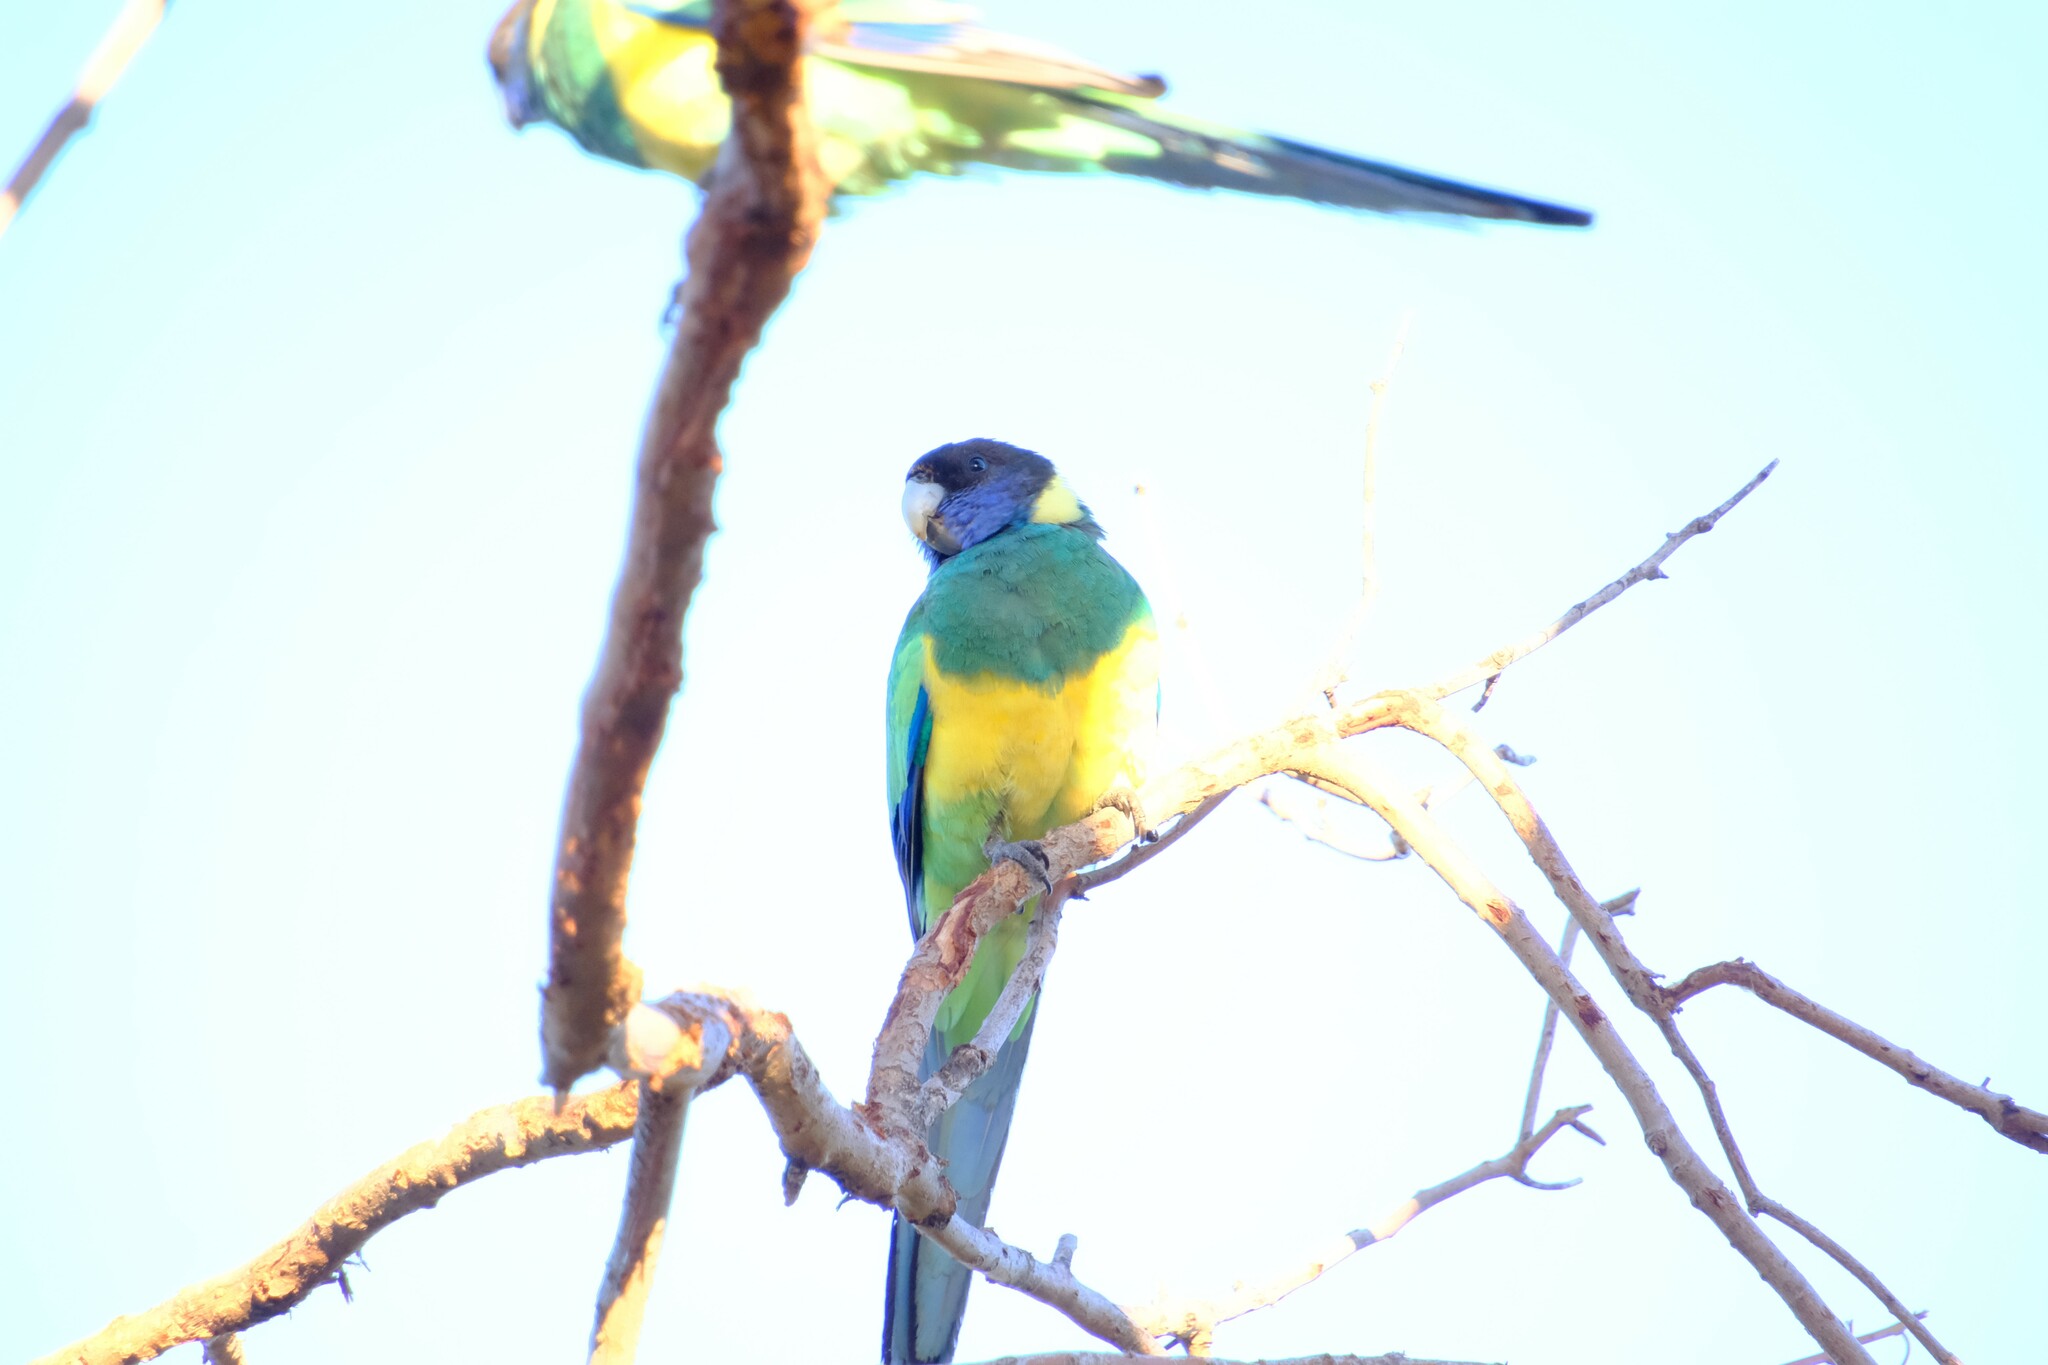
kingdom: Animalia
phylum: Chordata
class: Aves
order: Psittaciformes
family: Psittacidae
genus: Barnardius
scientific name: Barnardius zonarius
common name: Australian ringneck
